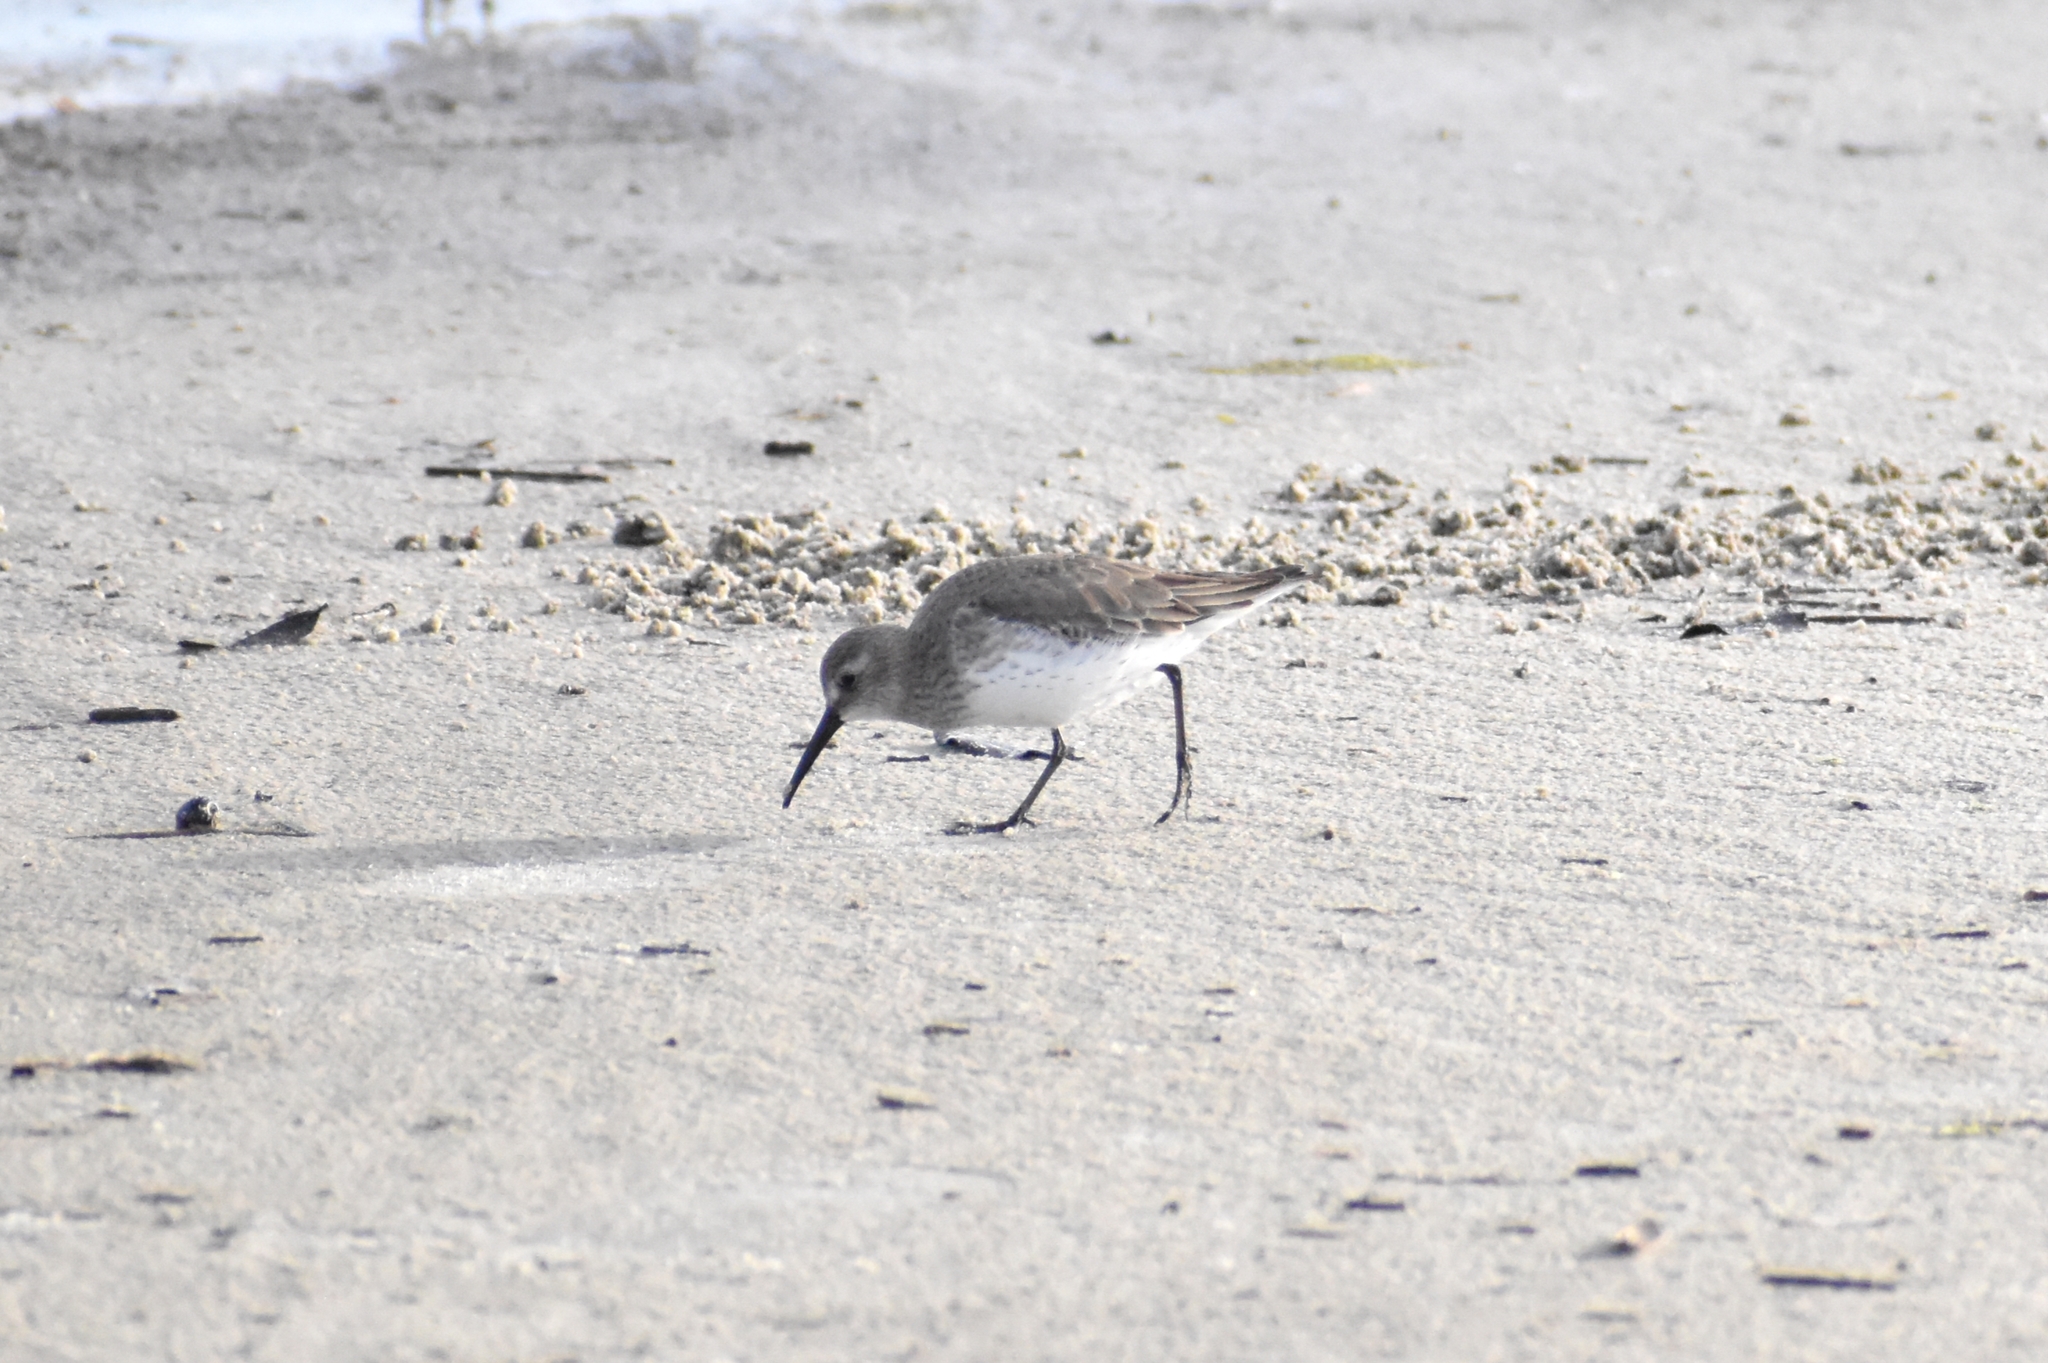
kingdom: Animalia
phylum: Chordata
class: Aves
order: Charadriiformes
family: Scolopacidae
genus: Calidris
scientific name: Calidris alpina
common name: Dunlin
